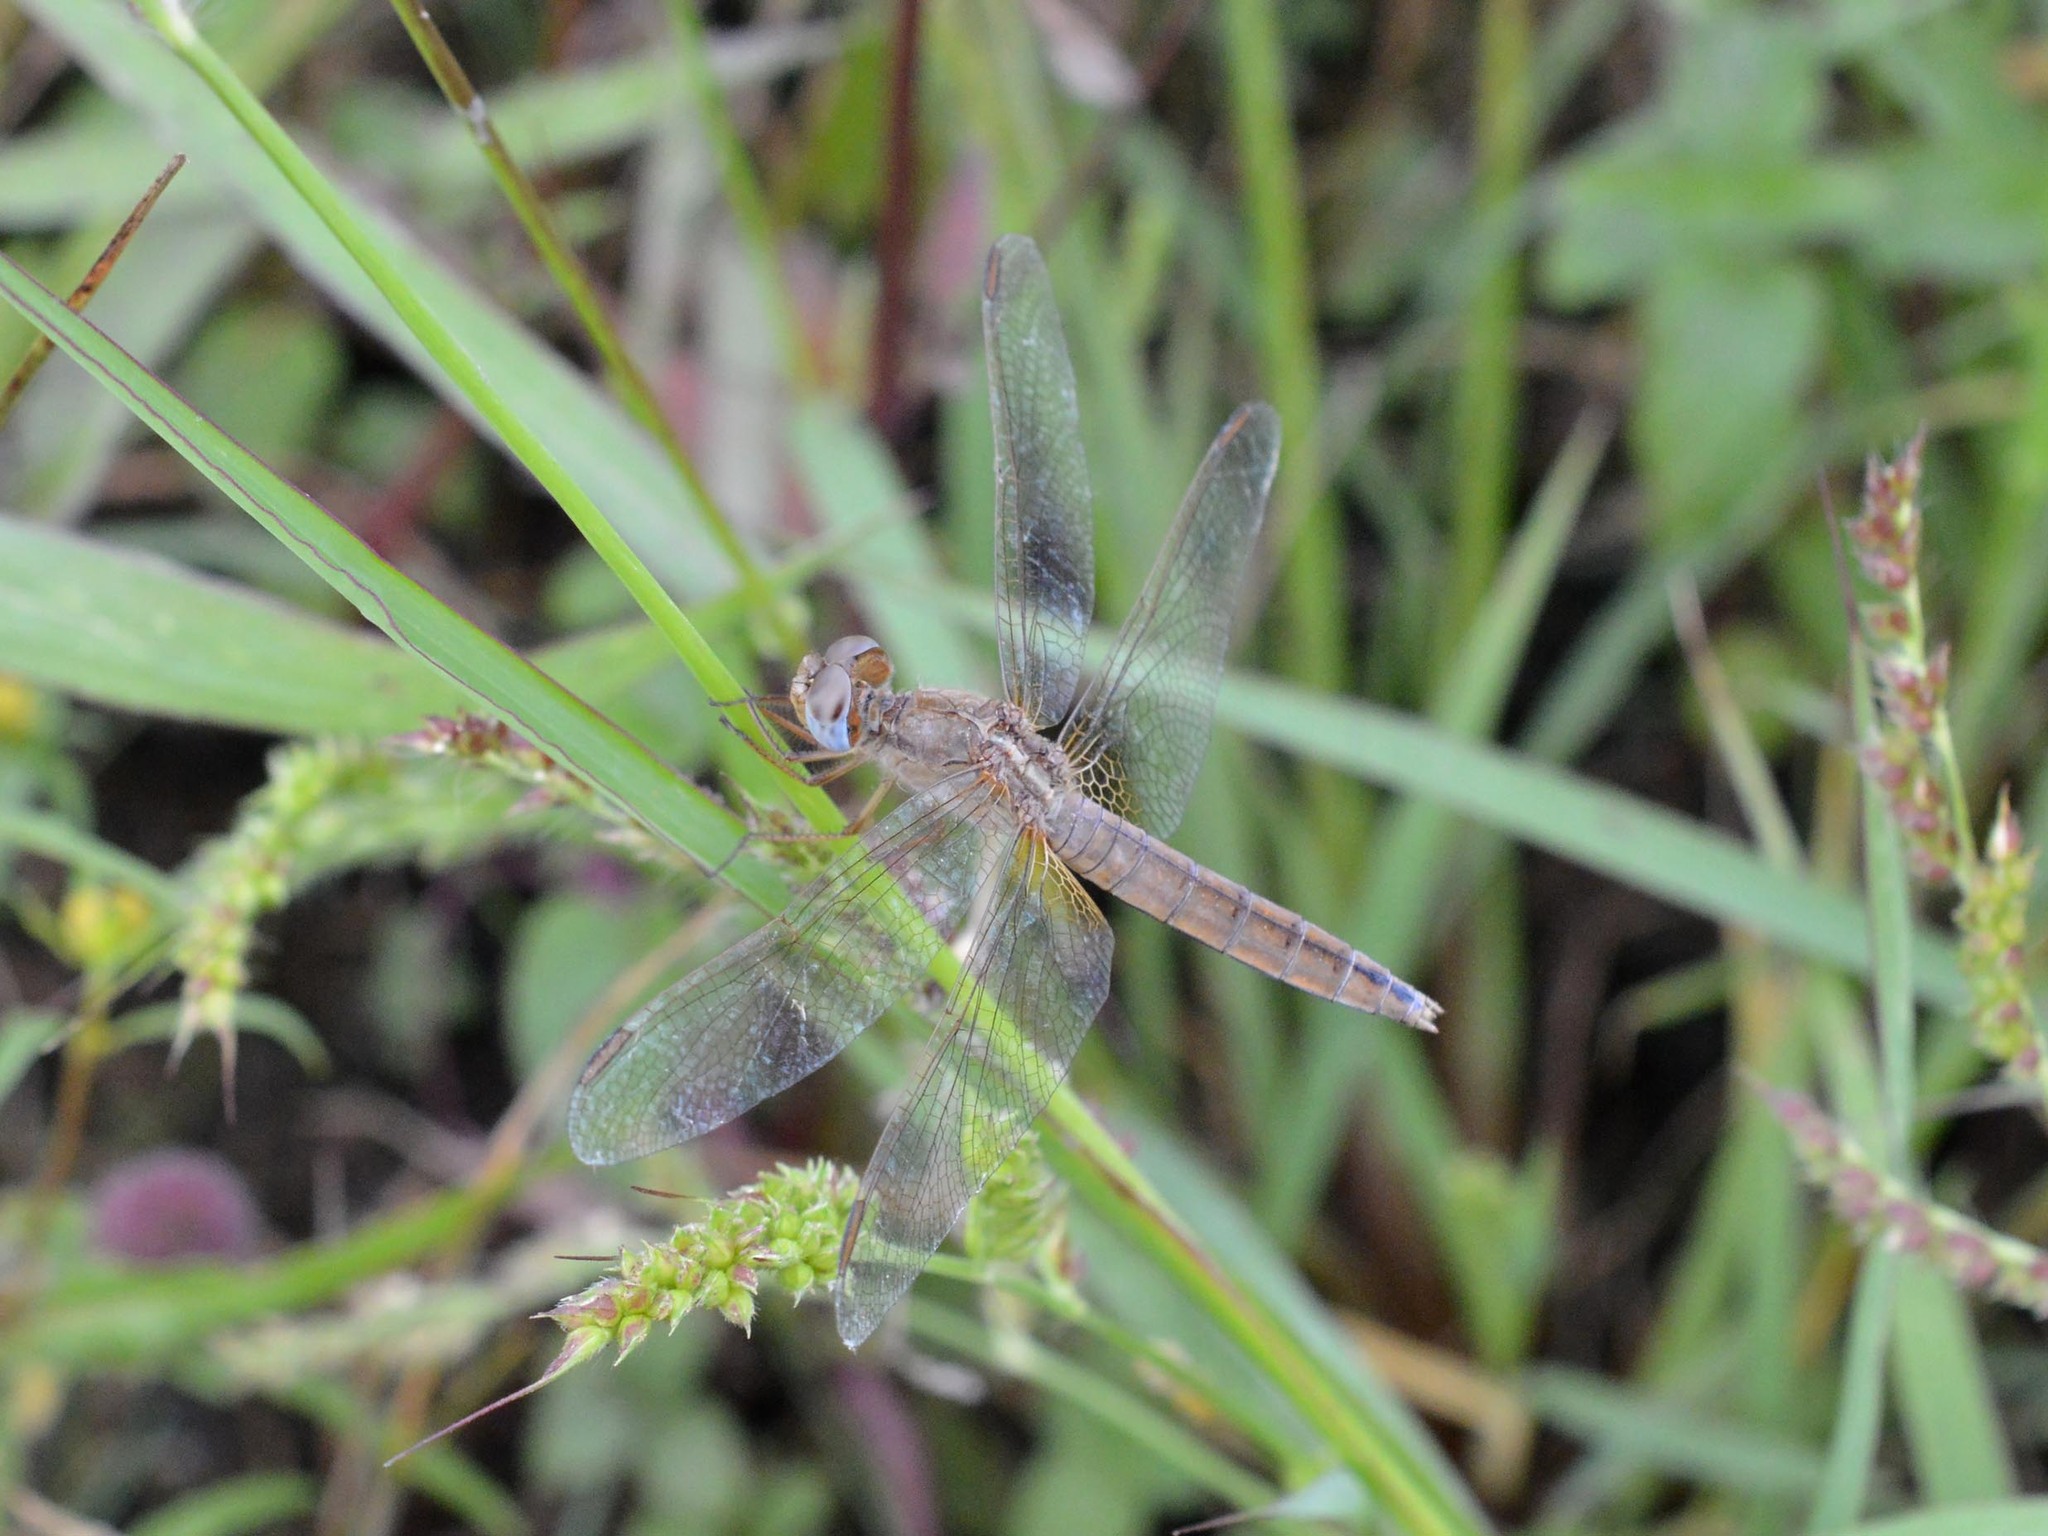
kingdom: Animalia
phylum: Arthropoda
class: Insecta
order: Odonata
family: Libellulidae
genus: Crocothemis
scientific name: Crocothemis erythraea
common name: Scarlet dragonfly
